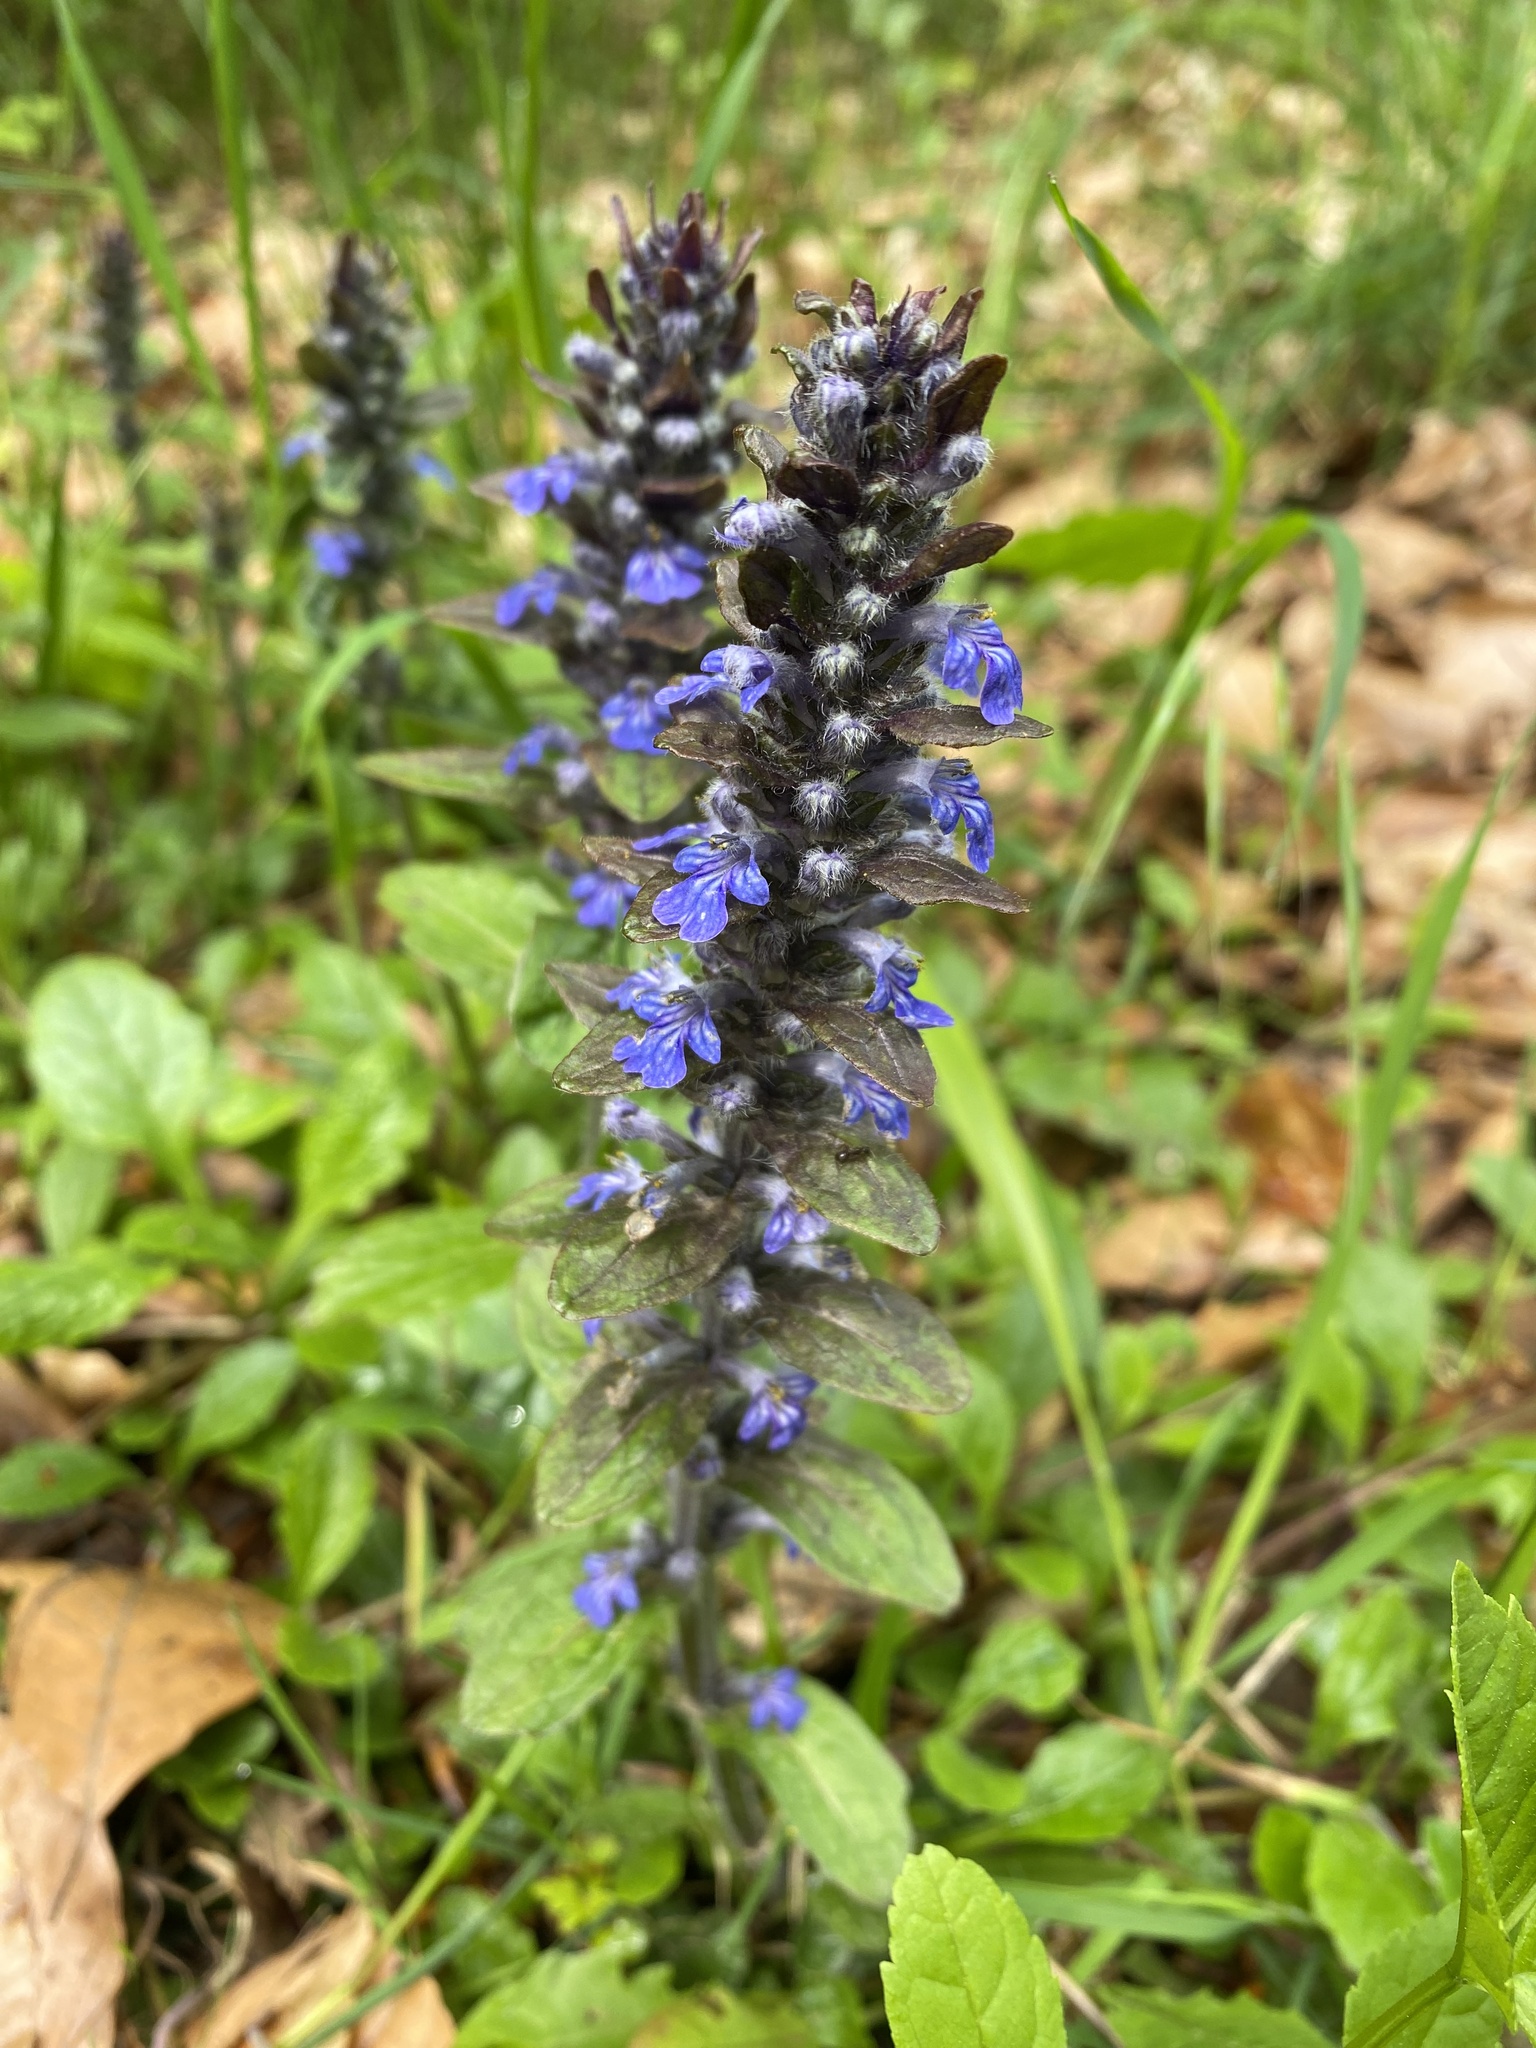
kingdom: Plantae
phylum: Tracheophyta
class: Magnoliopsida
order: Lamiales
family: Lamiaceae
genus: Ajuga
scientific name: Ajuga reptans
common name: Bugle
